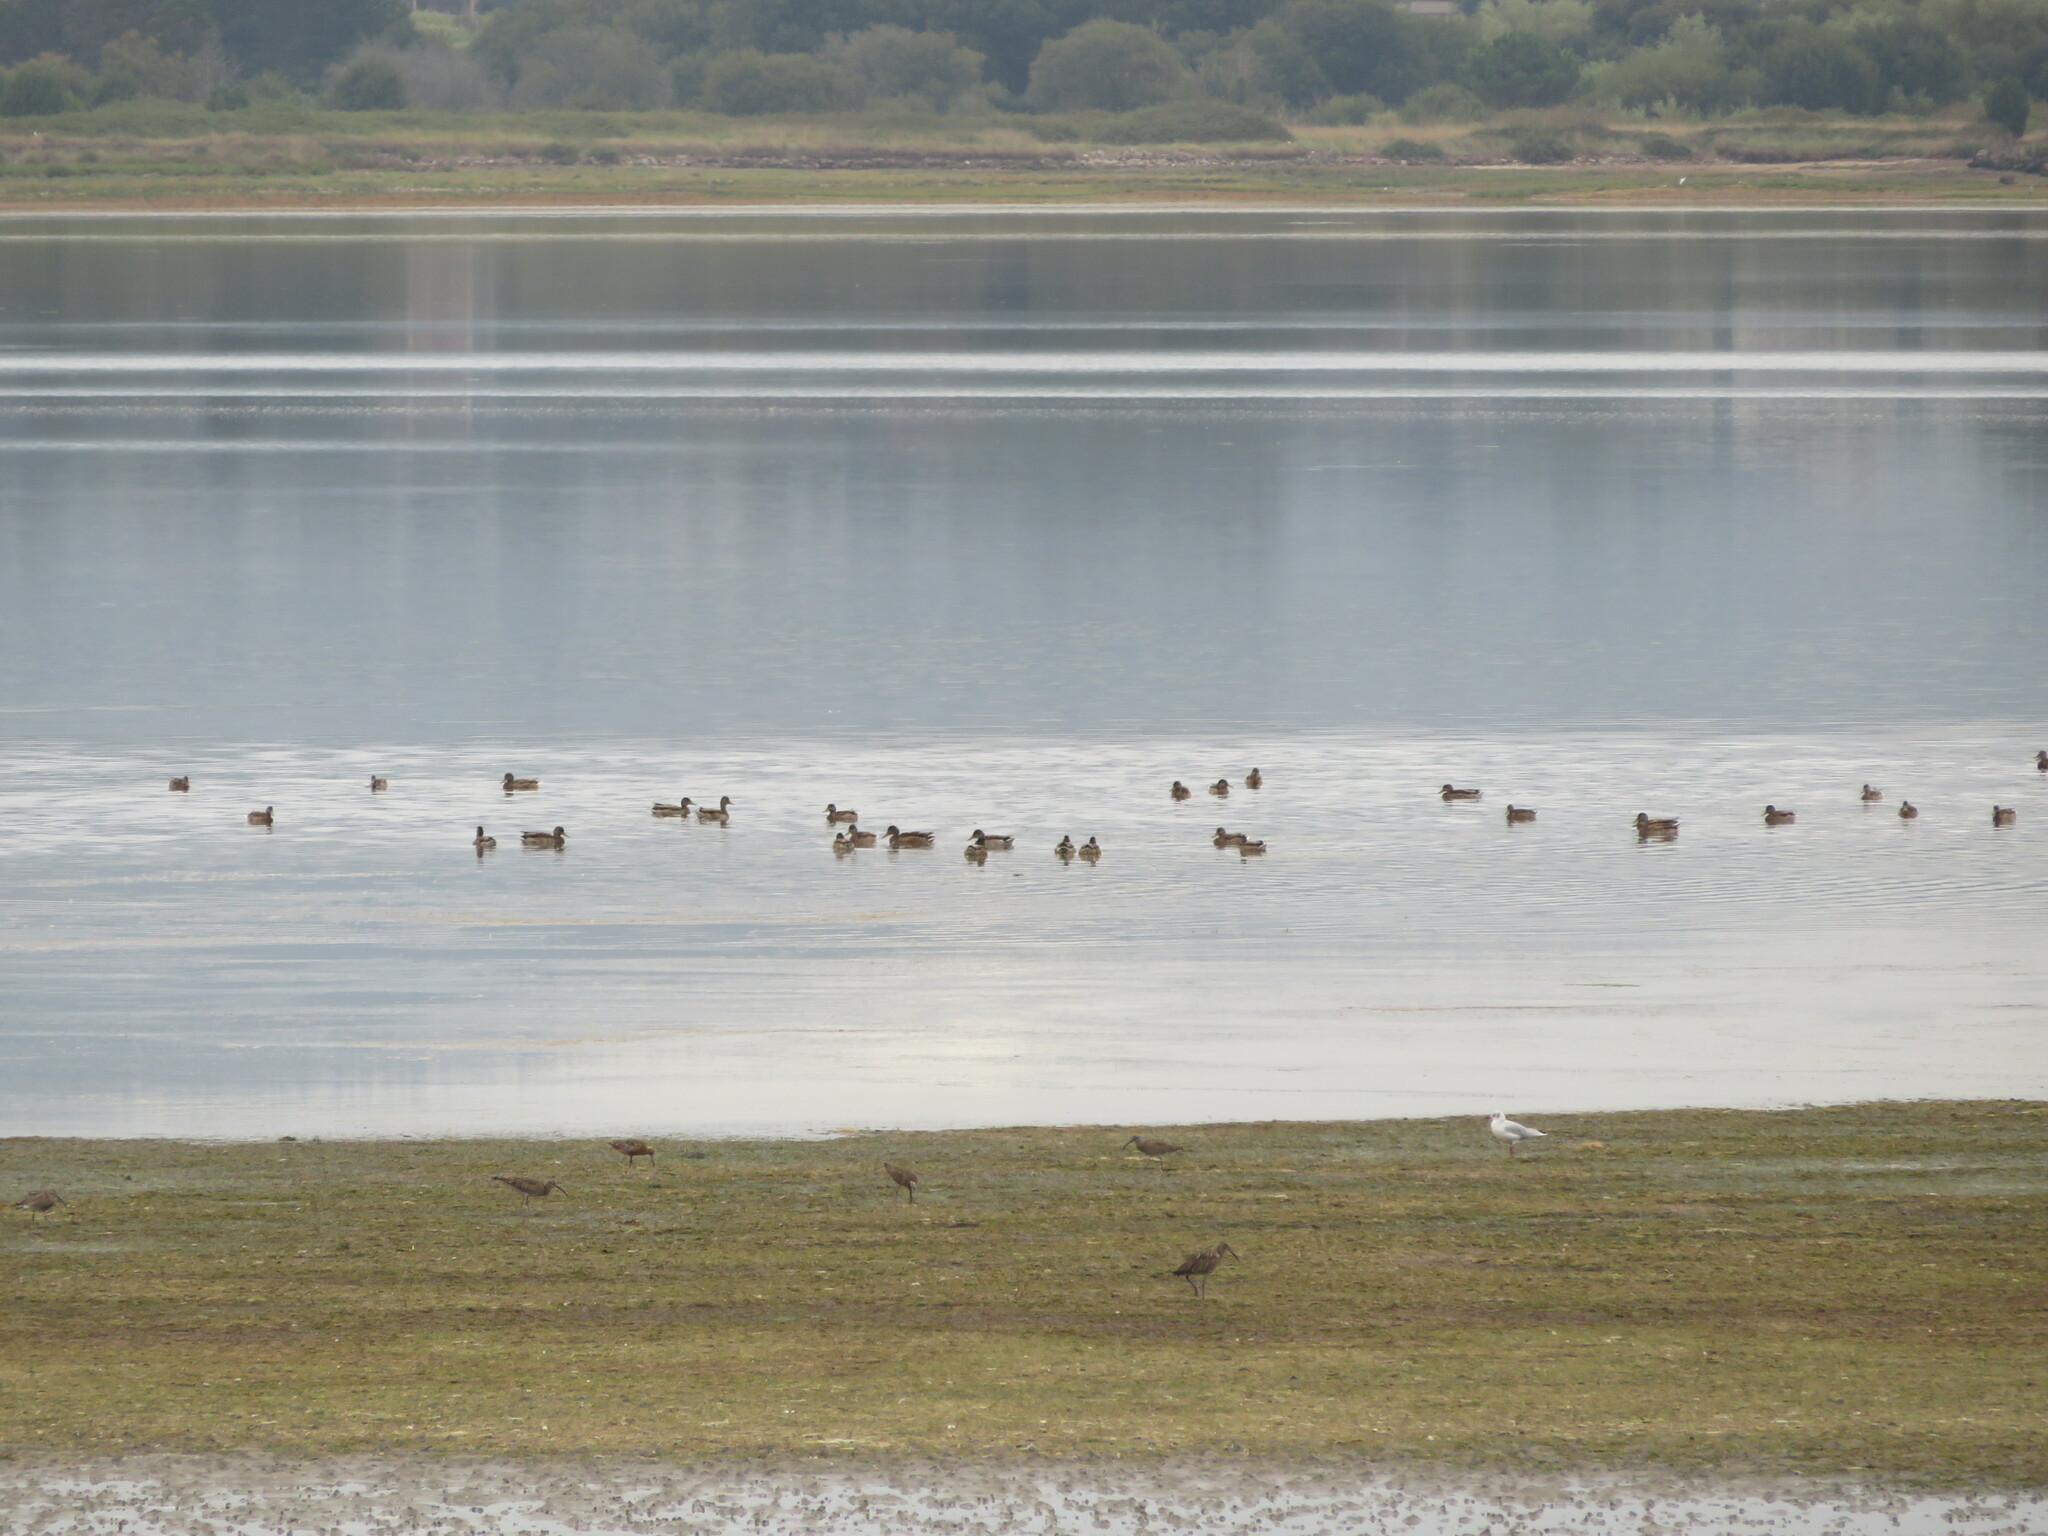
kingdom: Animalia
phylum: Chordata
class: Aves
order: Anseriformes
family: Anatidae
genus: Anas
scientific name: Anas platyrhynchos
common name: Mallard
